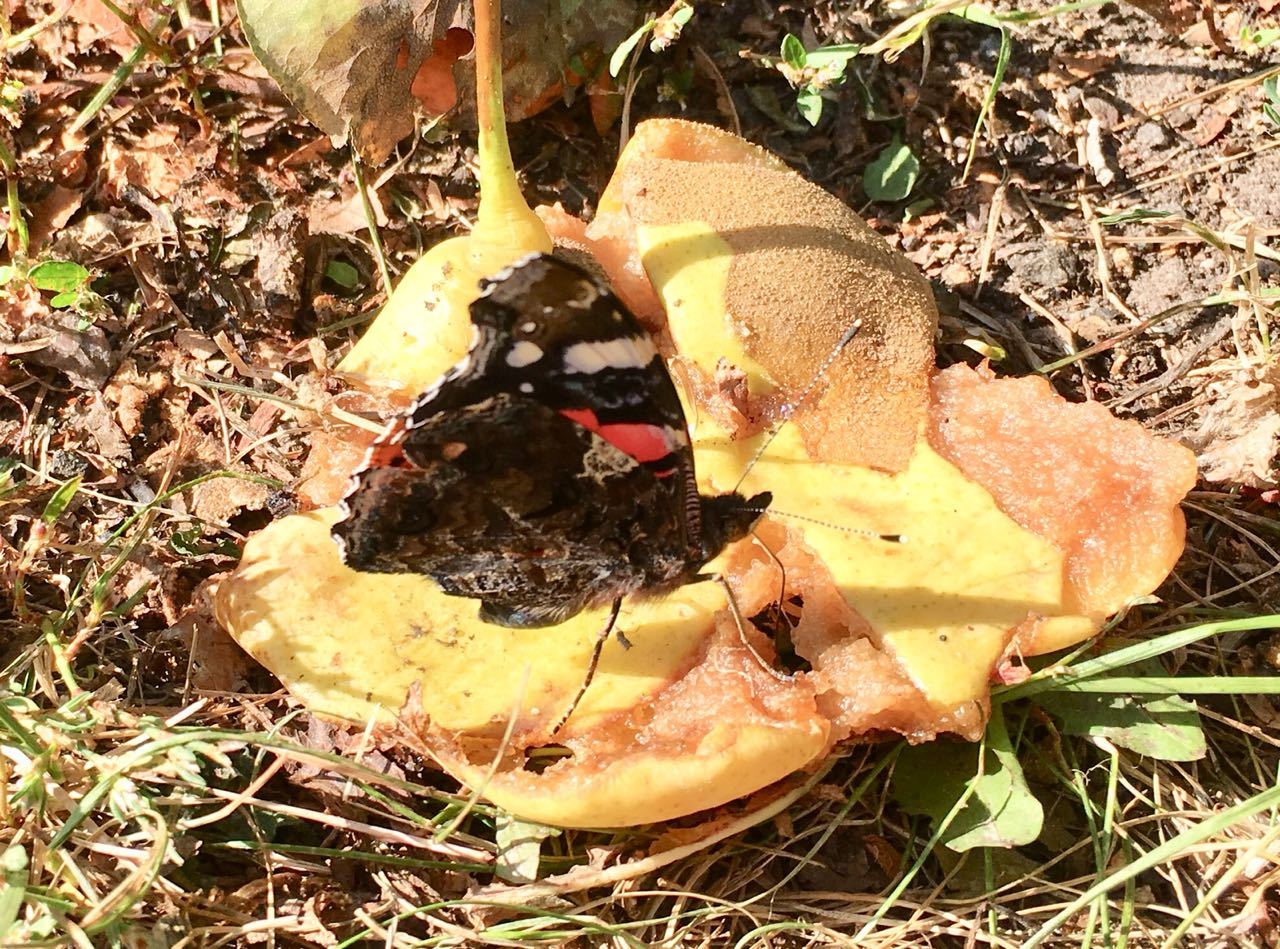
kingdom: Animalia
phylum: Arthropoda
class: Insecta
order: Lepidoptera
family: Nymphalidae
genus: Vanessa
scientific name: Vanessa atalanta
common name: Red admiral
